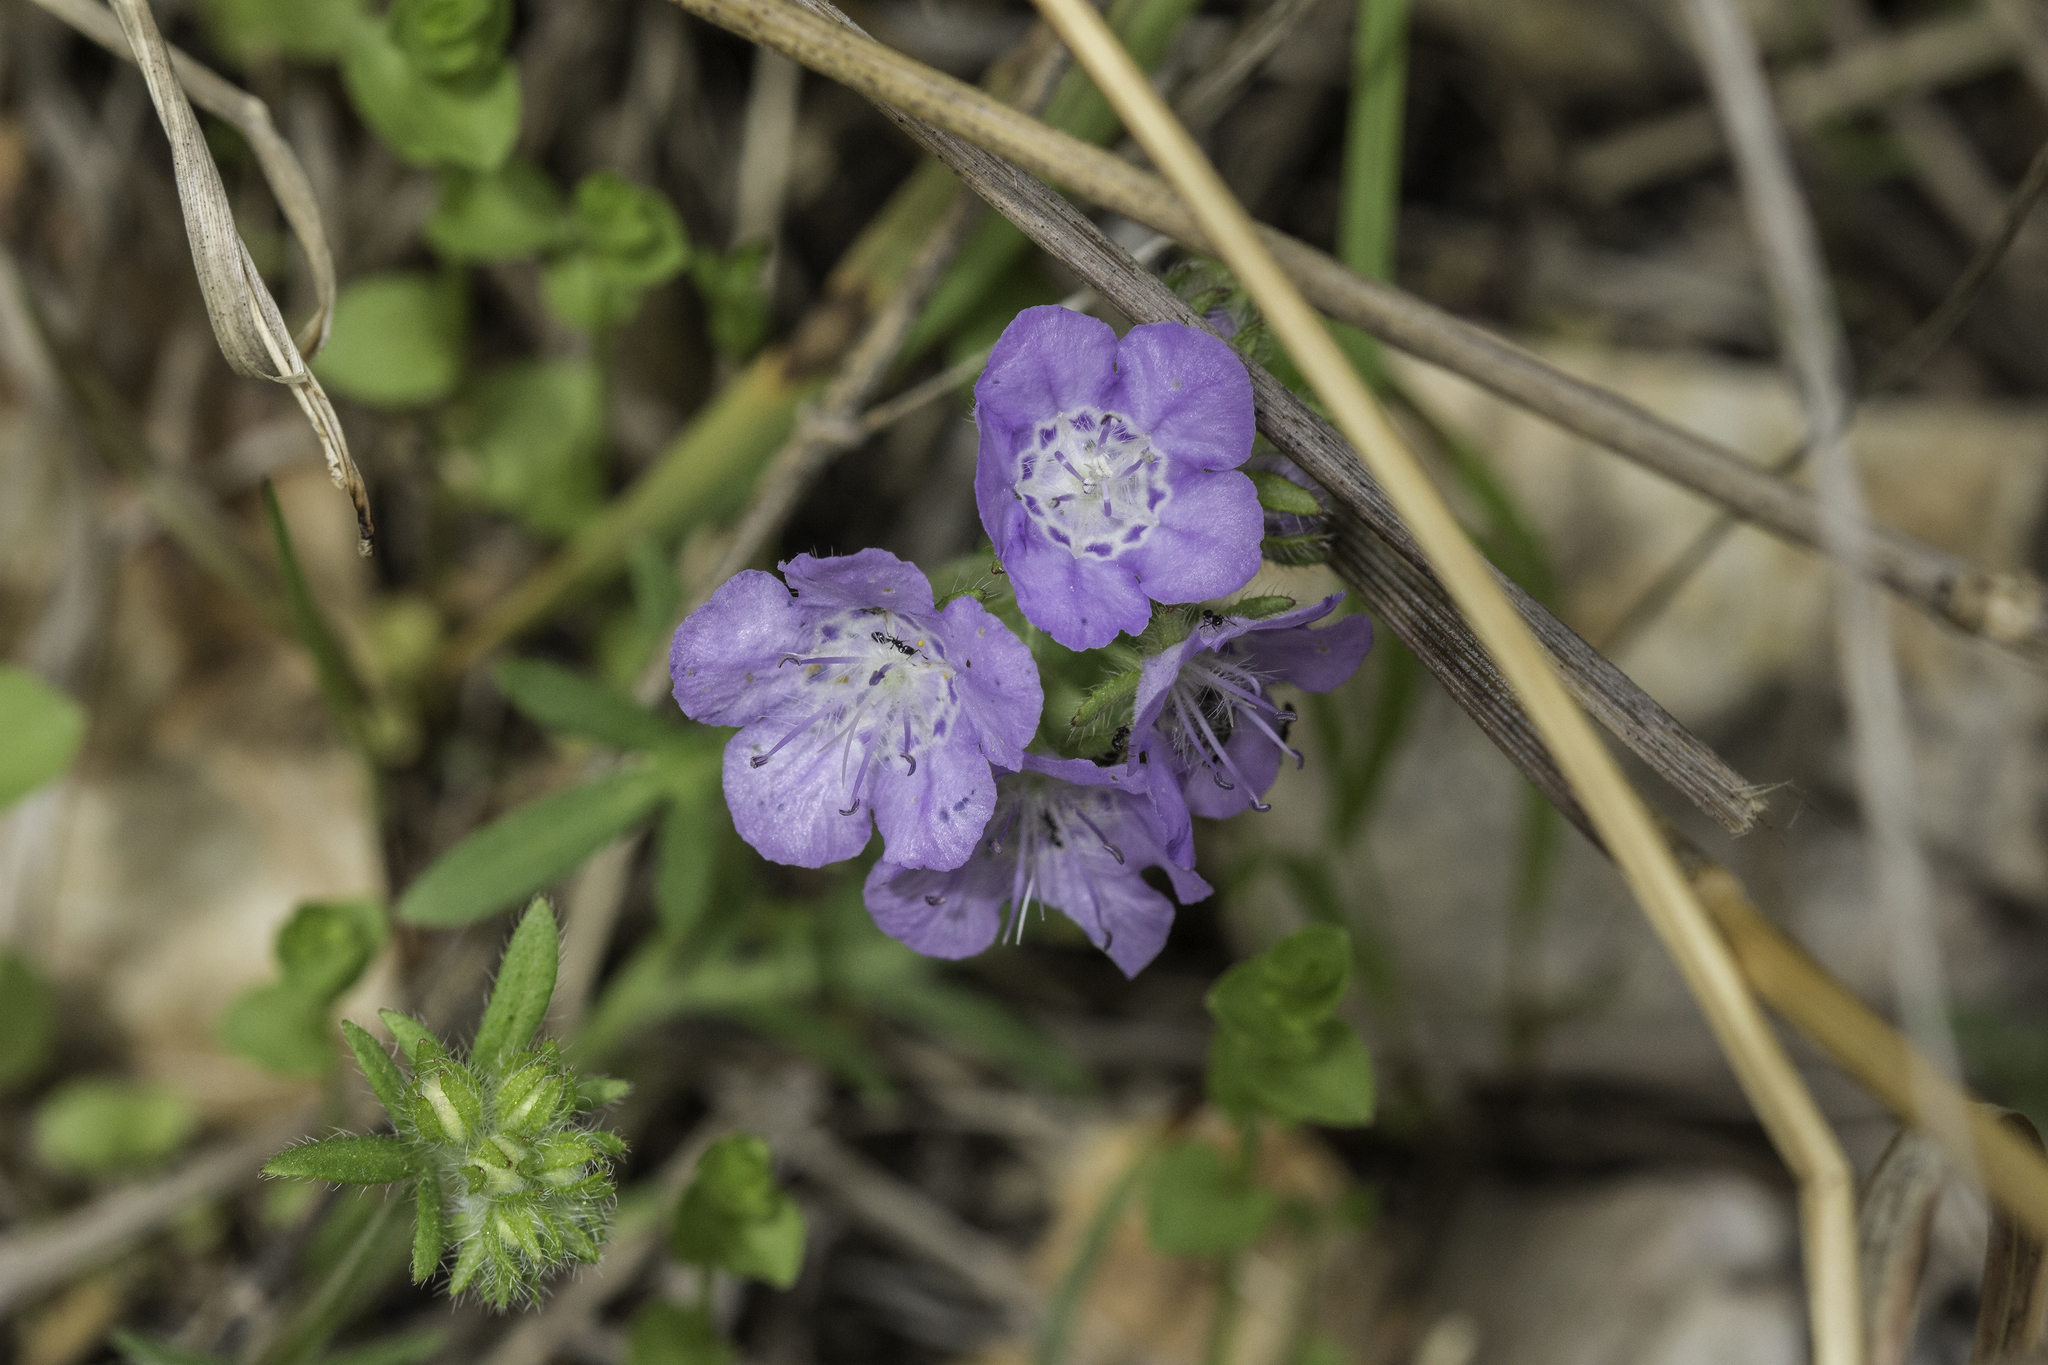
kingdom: Plantae
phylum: Tracheophyta
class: Magnoliopsida
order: Boraginales
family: Hydrophyllaceae
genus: Phacelia
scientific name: Phacelia hirsuta
